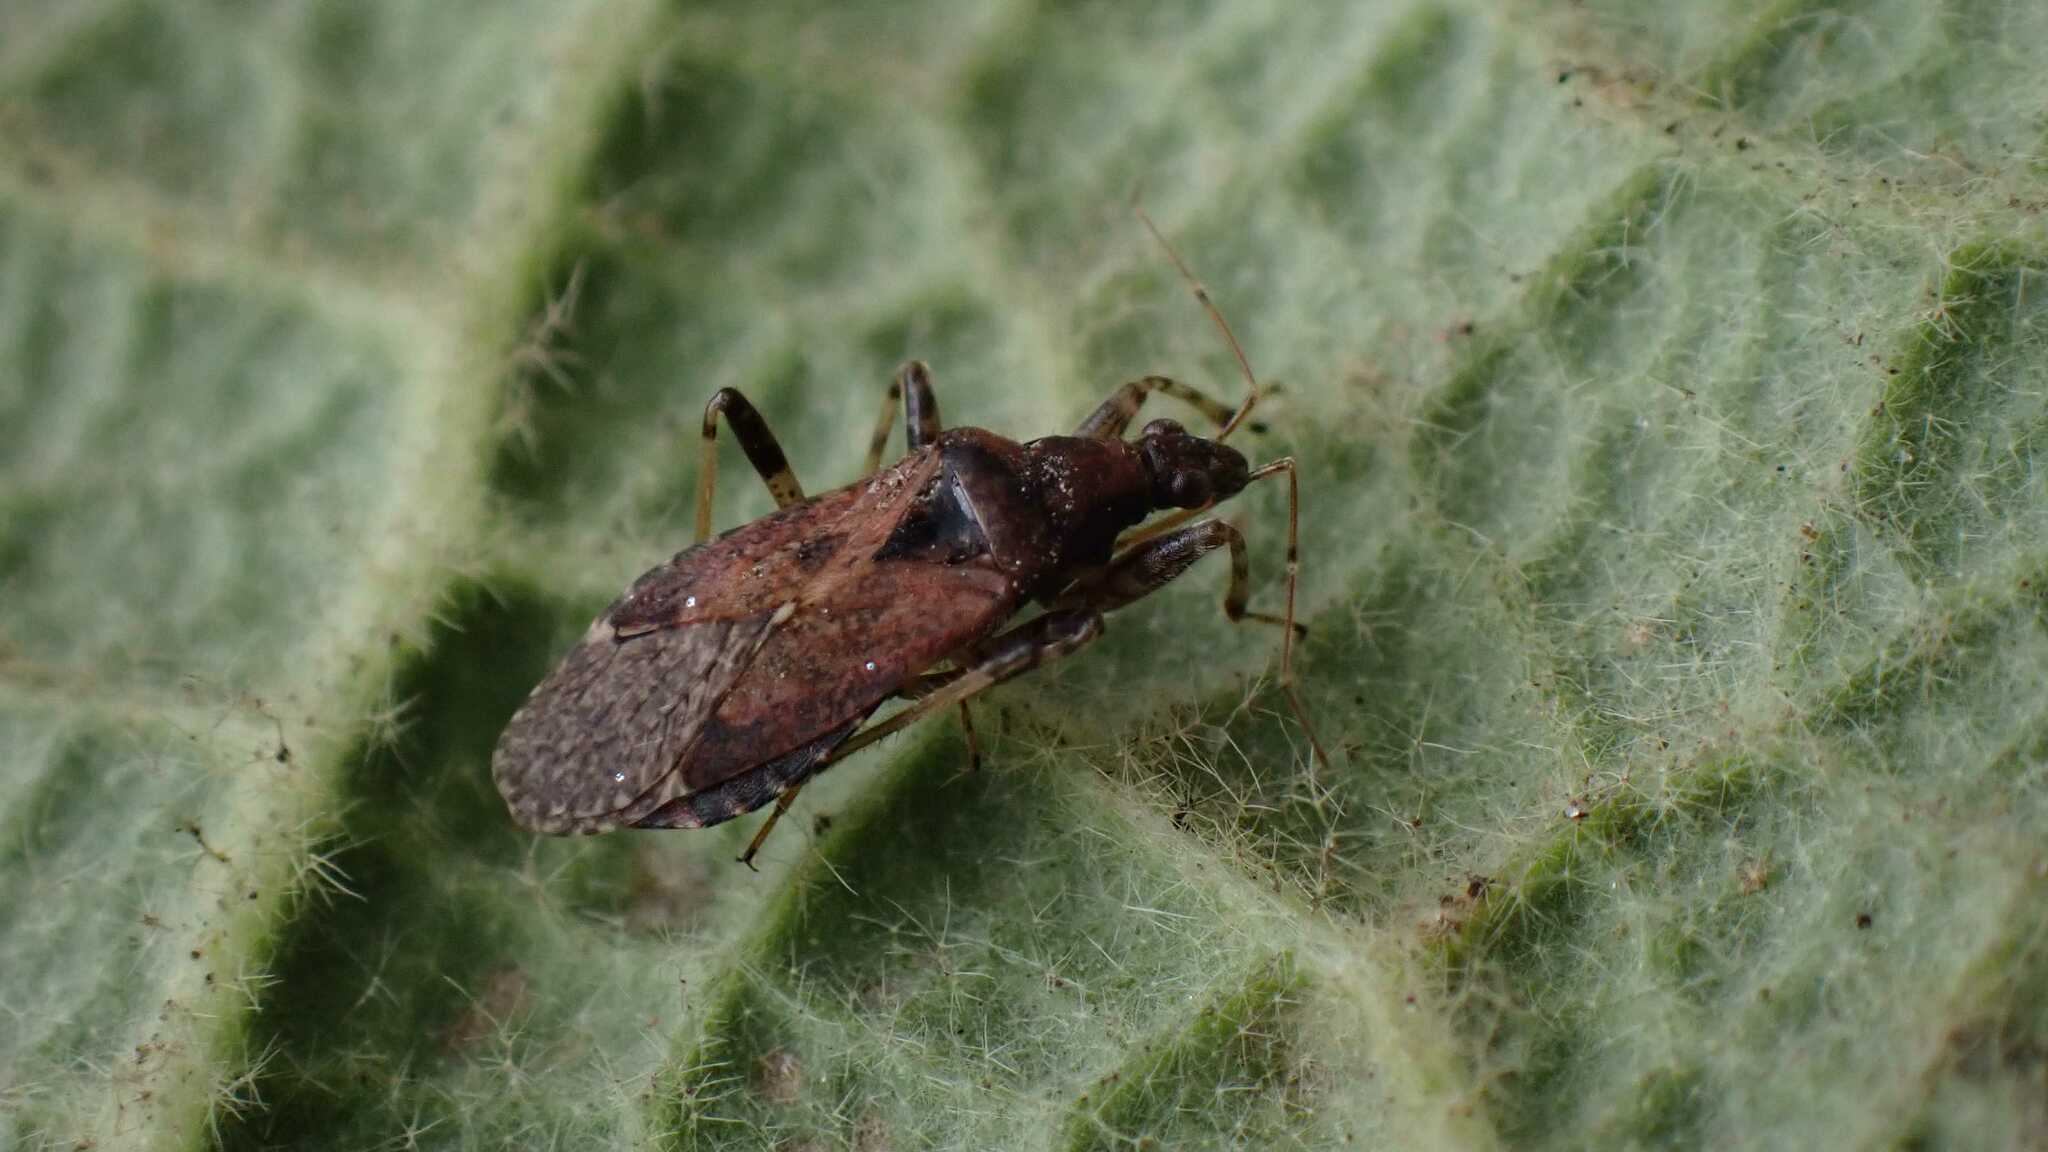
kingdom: Animalia
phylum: Arthropoda
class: Insecta
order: Hemiptera
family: Nabidae
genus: Himacerus
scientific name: Himacerus mirmicoides
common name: Ant damsel bug
